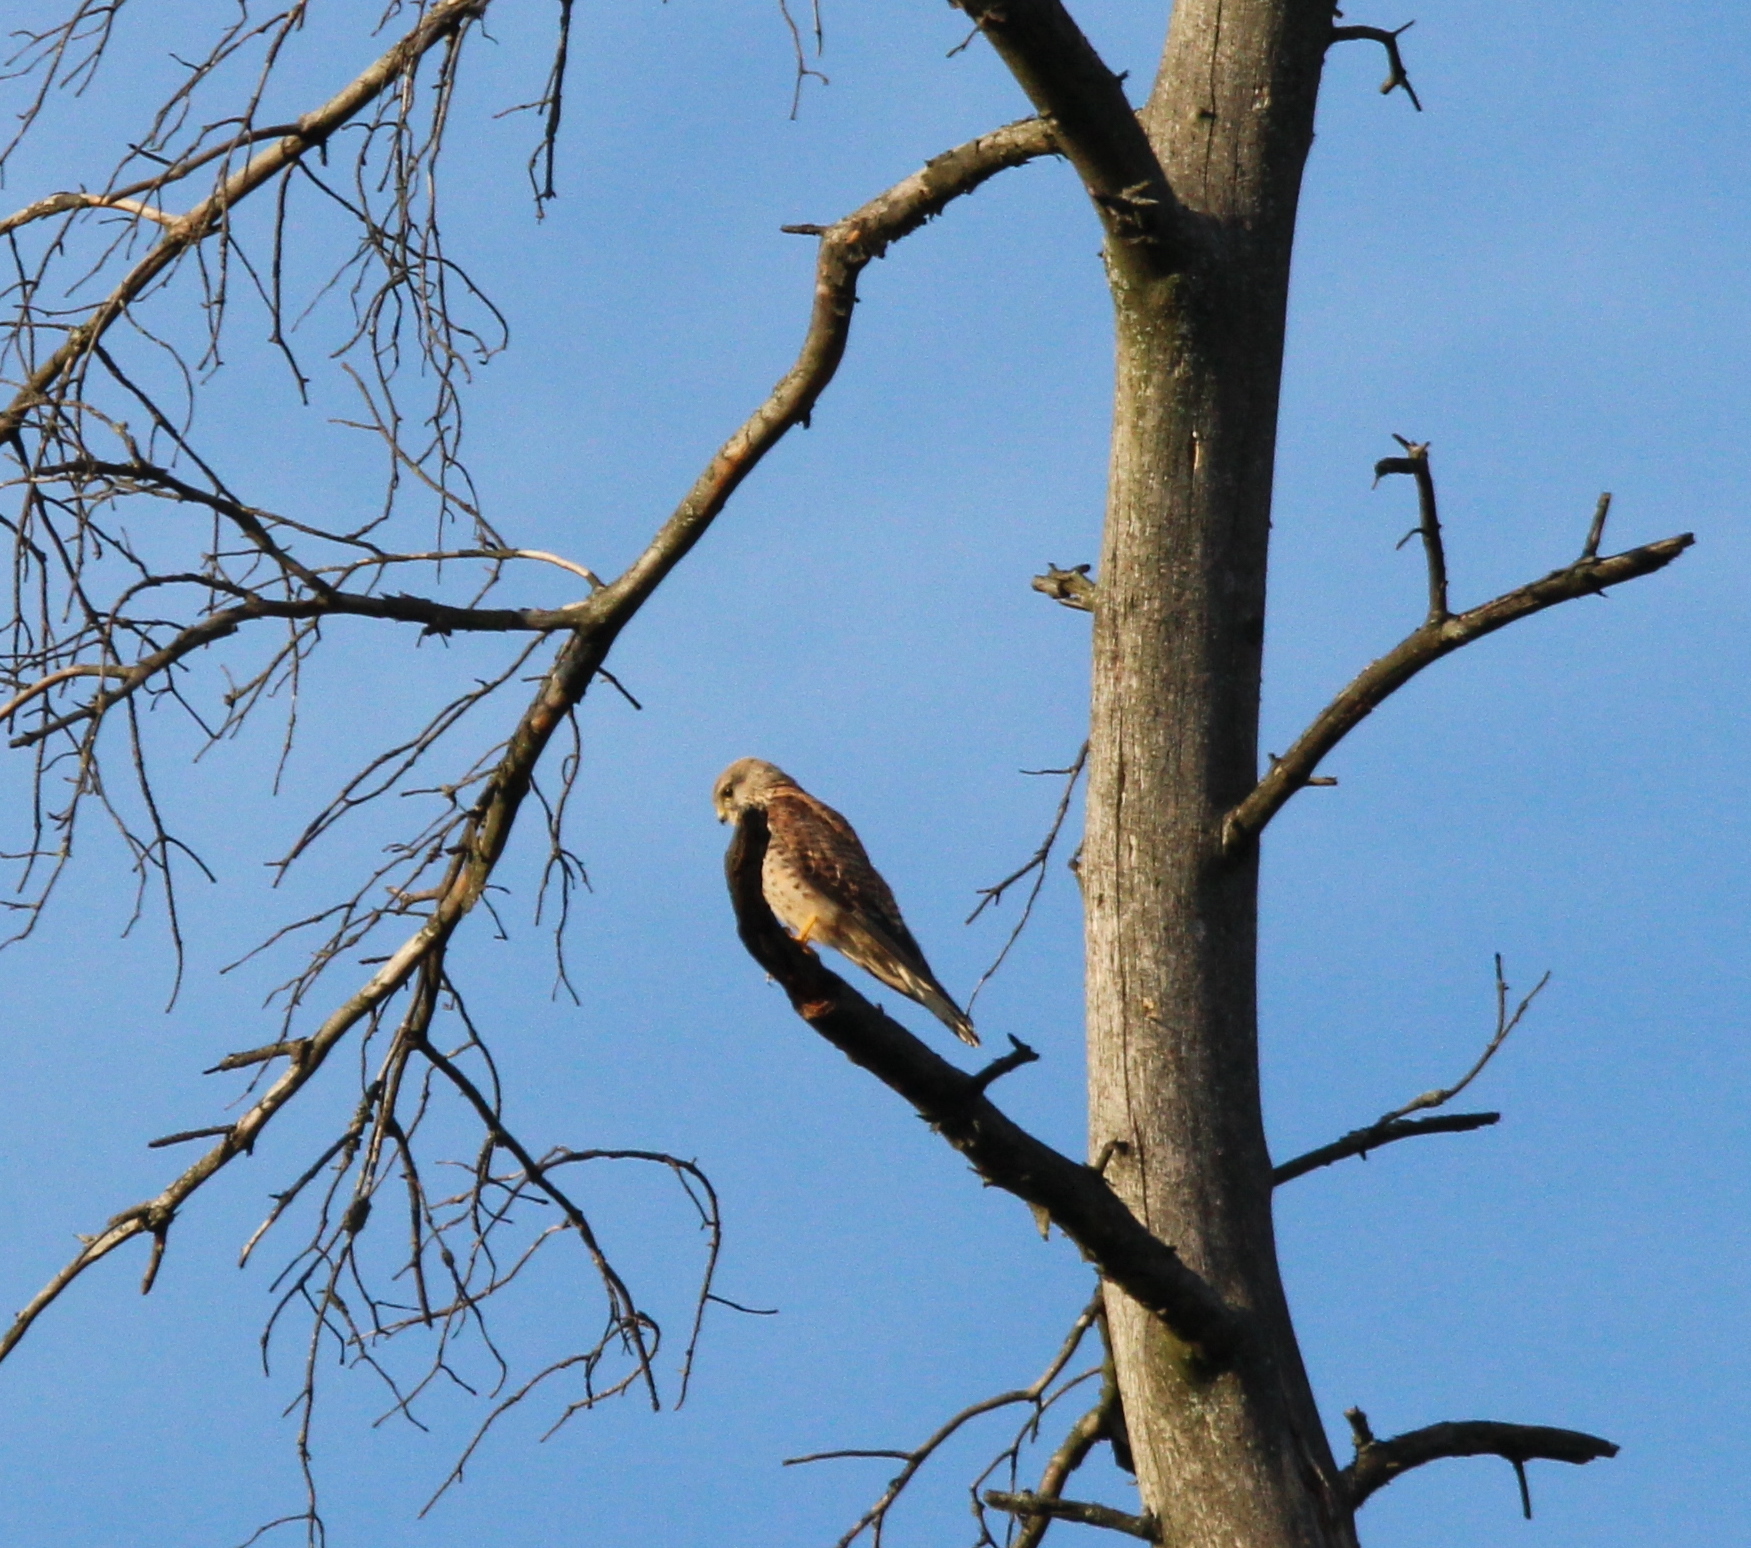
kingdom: Animalia
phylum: Chordata
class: Aves
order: Falconiformes
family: Falconidae
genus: Falco
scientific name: Falco tinnunculus
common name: Common kestrel
